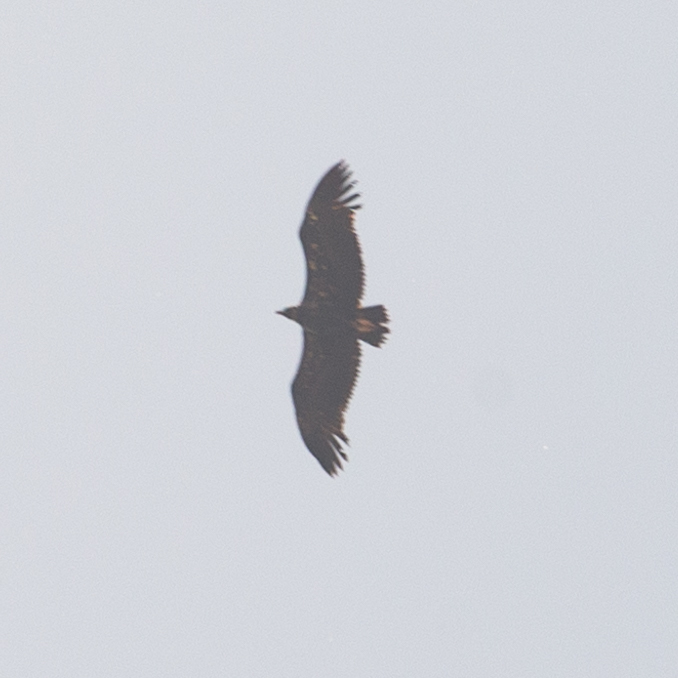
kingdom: Animalia
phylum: Chordata
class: Aves
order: Accipitriformes
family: Accipitridae
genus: Aegypius
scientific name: Aegypius monachus
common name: Cinereous vulture
